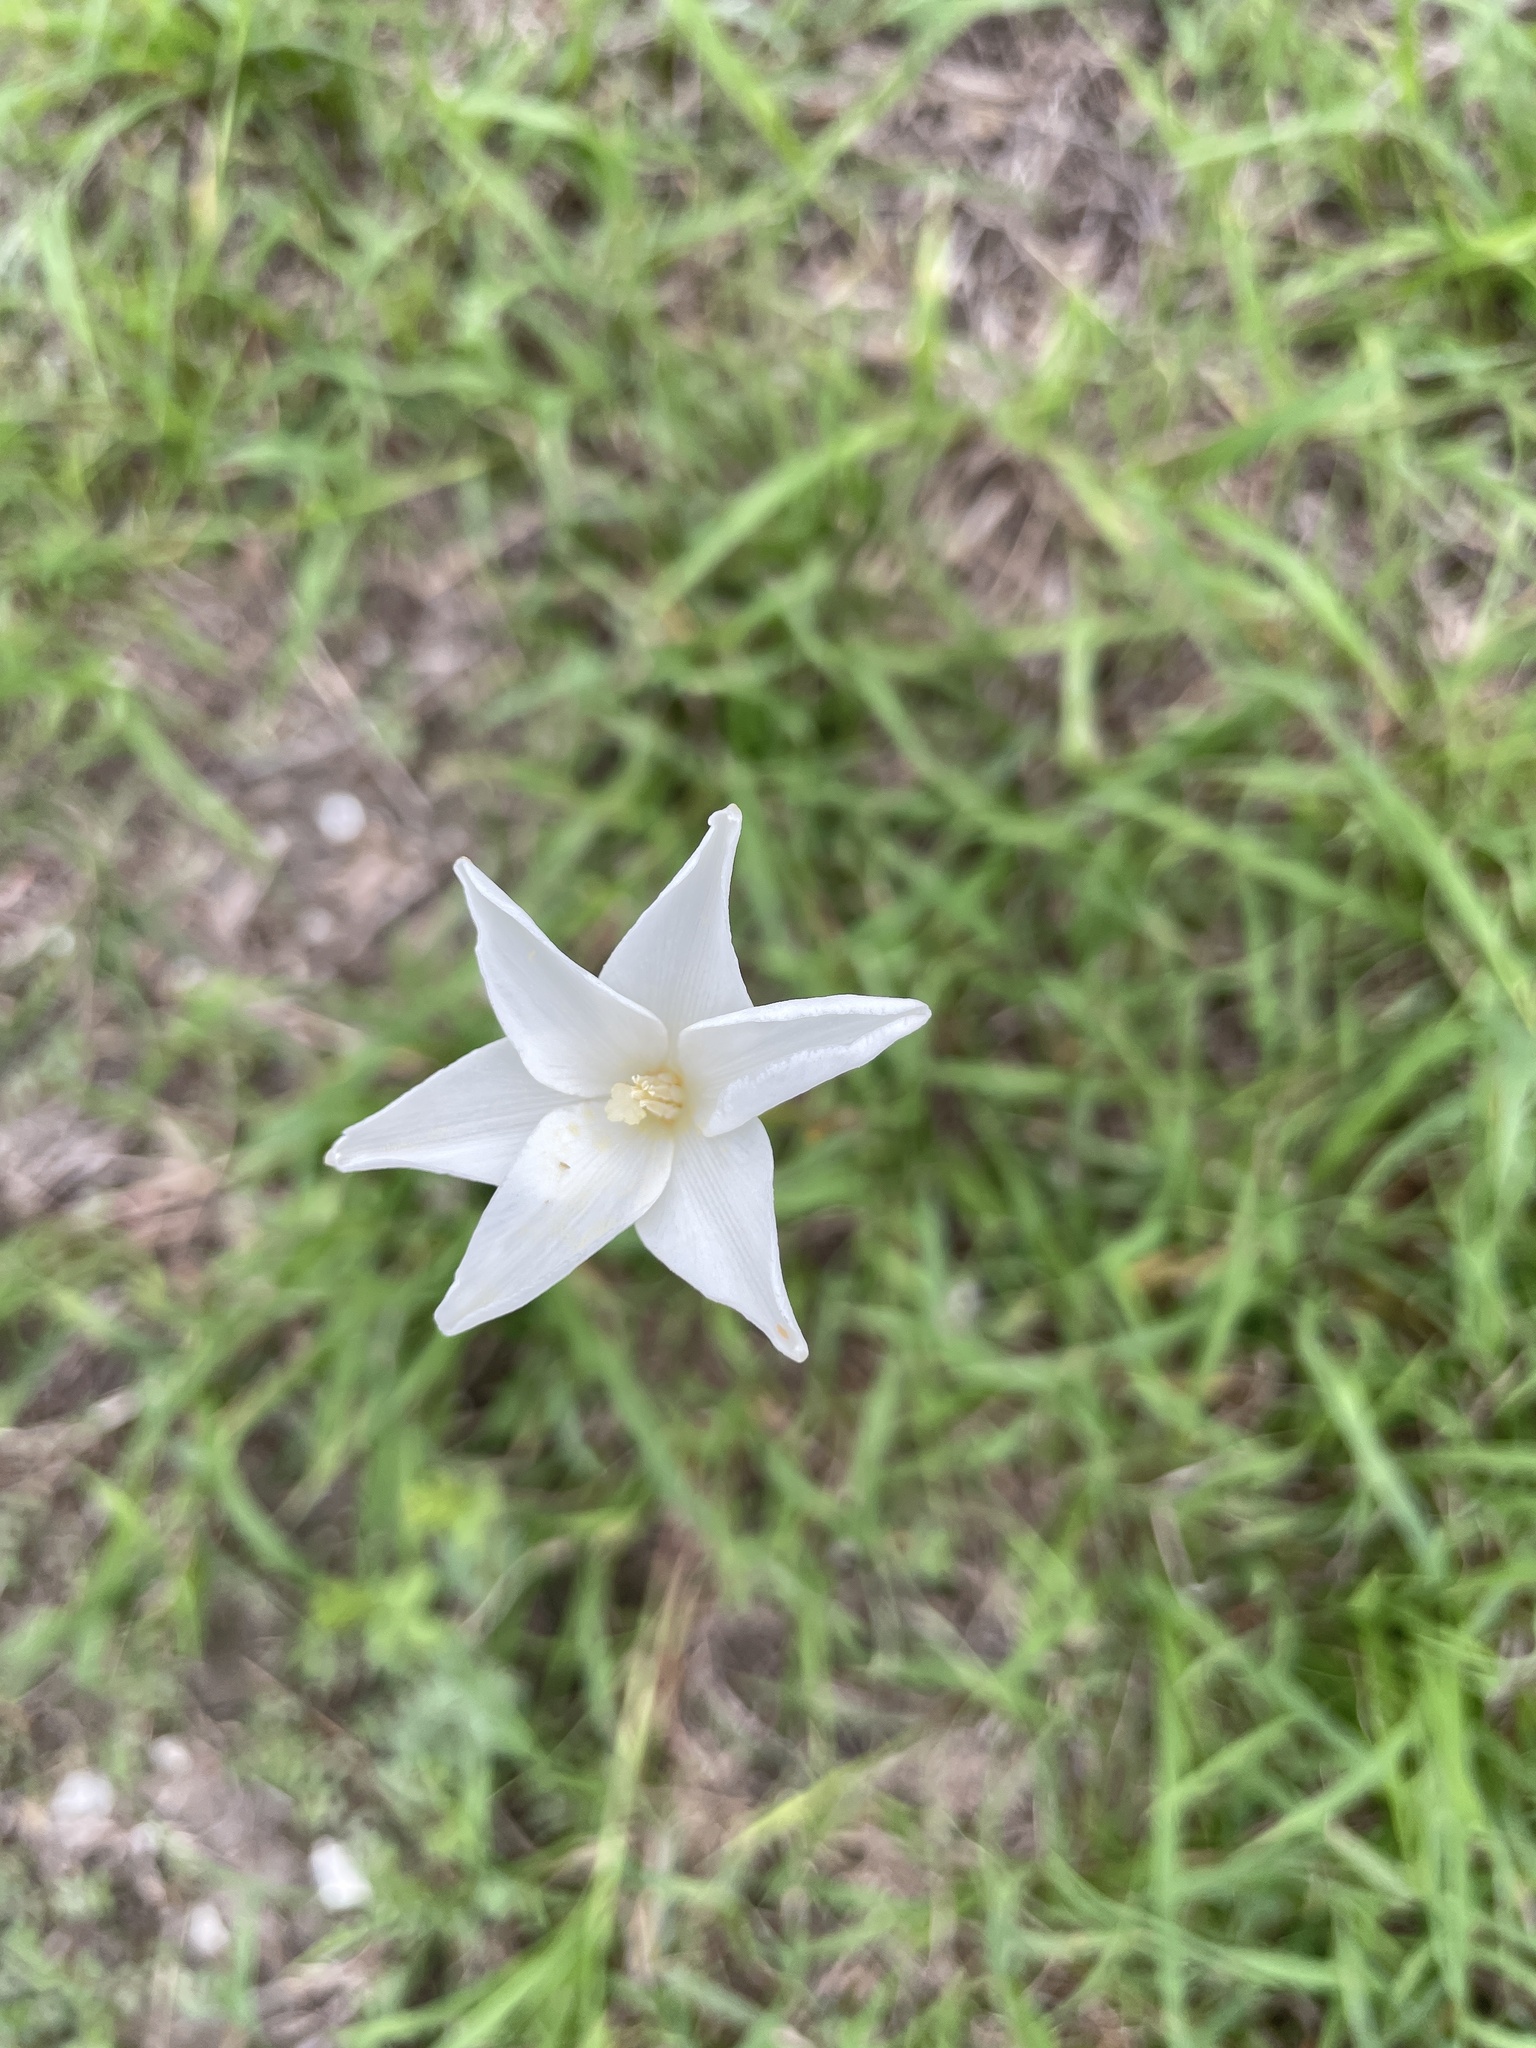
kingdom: Plantae
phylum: Tracheophyta
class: Liliopsida
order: Asparagales
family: Amaryllidaceae
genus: Zephyranthes
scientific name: Zephyranthes chlorosolen
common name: Evening rain-lily
